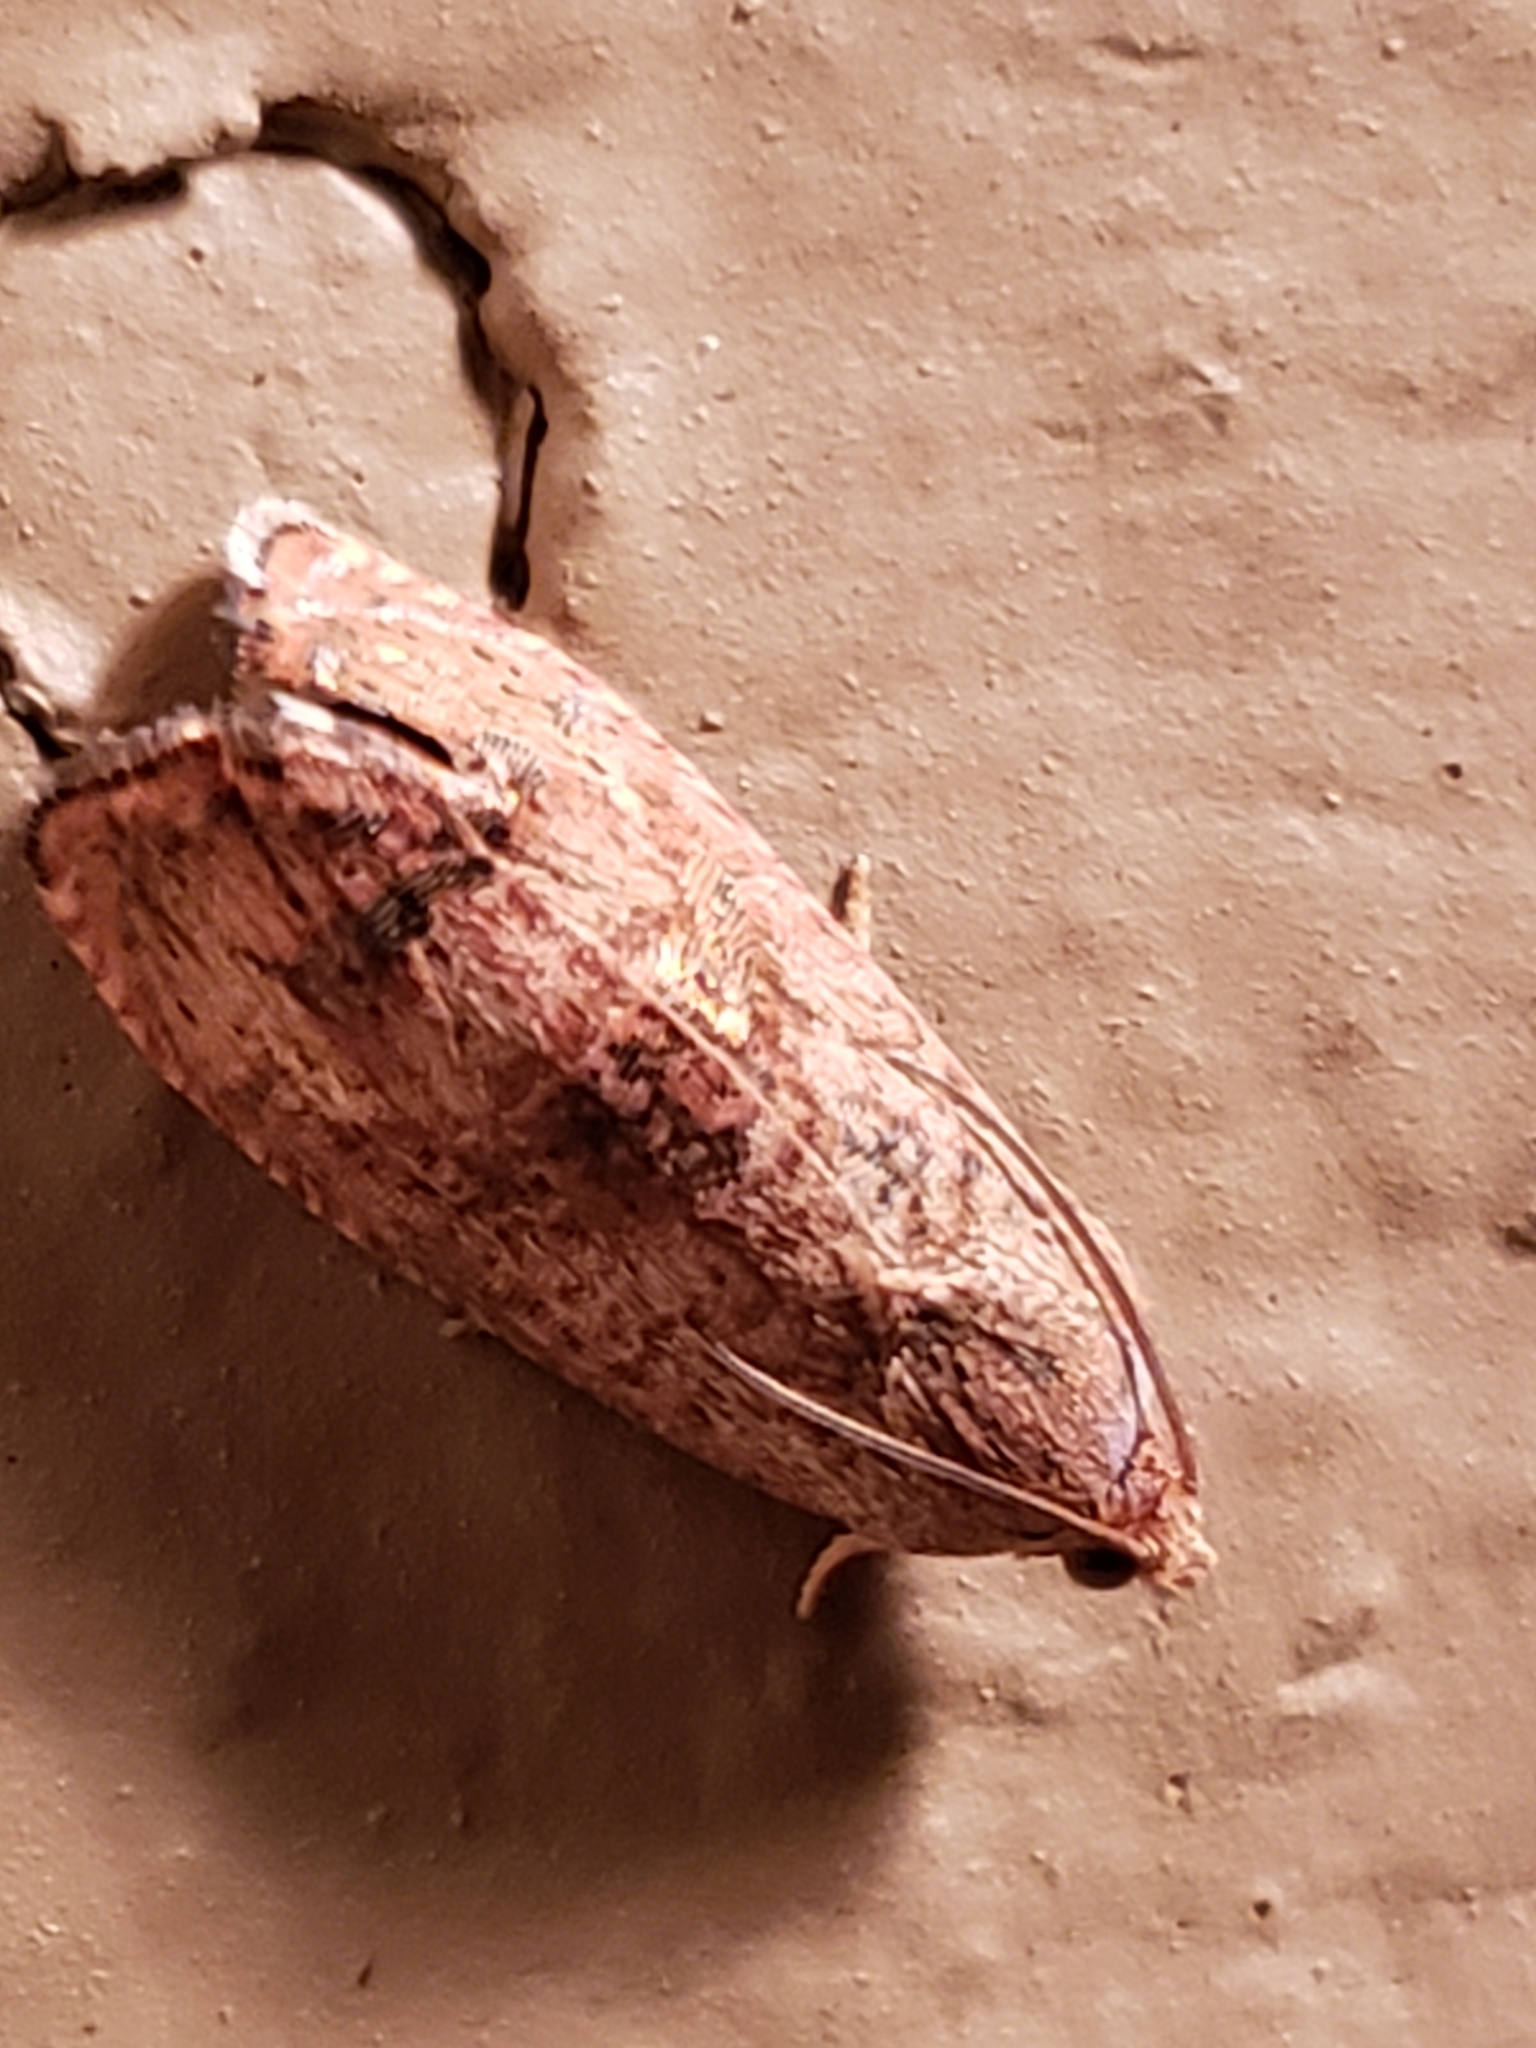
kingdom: Animalia
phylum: Arthropoda
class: Insecta
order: Lepidoptera
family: Tortricidae
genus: Cydia
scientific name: Cydia latiferreana
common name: Filbertworm moth
